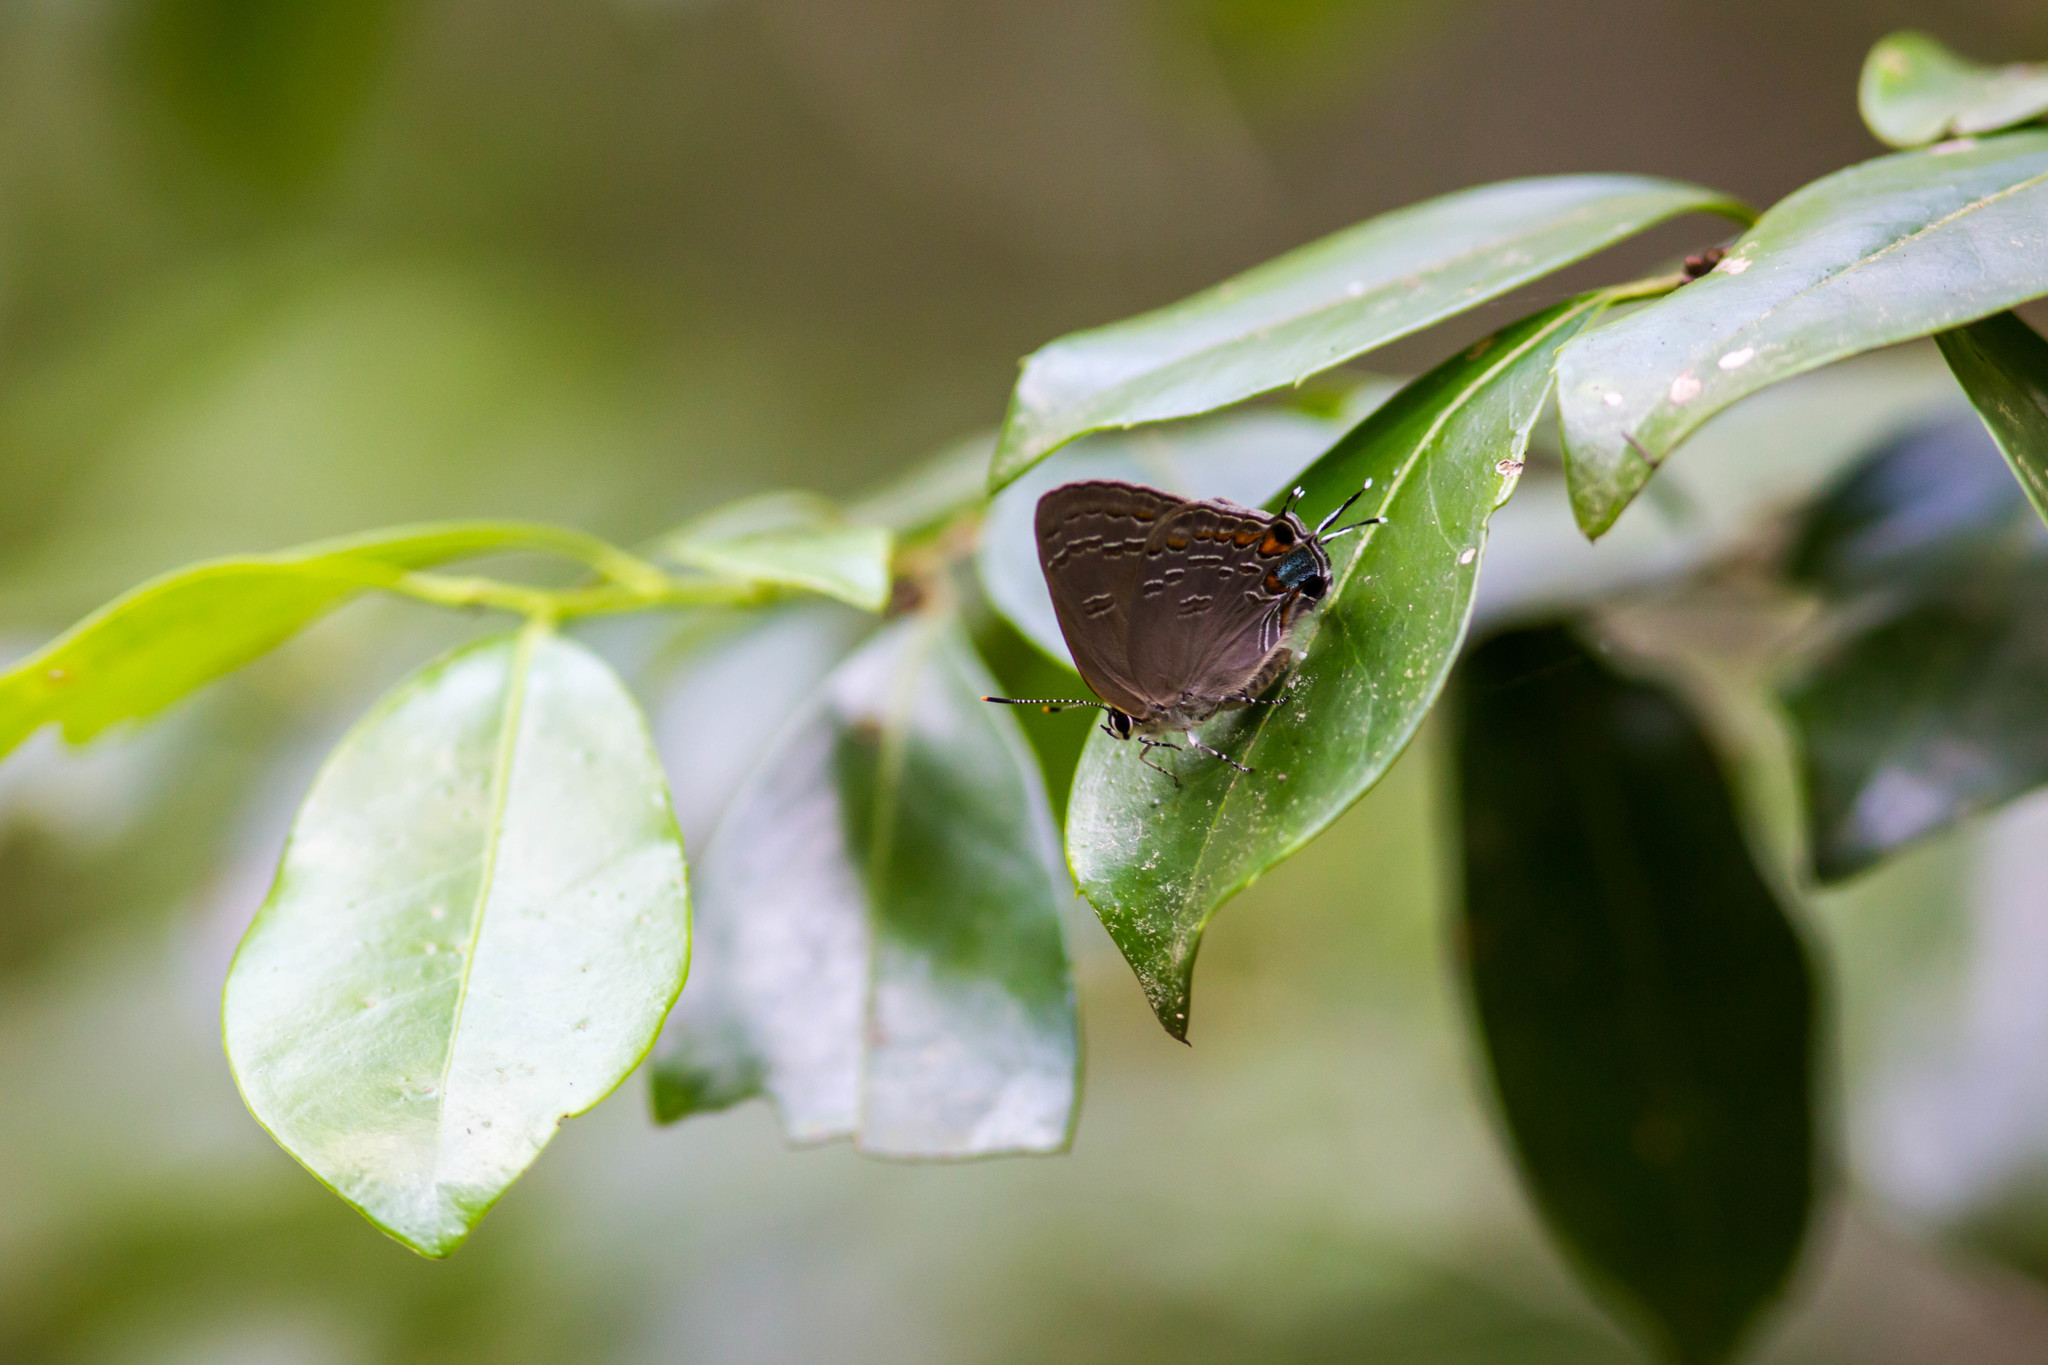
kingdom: Animalia
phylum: Arthropoda
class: Insecta
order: Lepidoptera
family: Lycaenidae
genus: Strymon
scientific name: Strymon kingi
